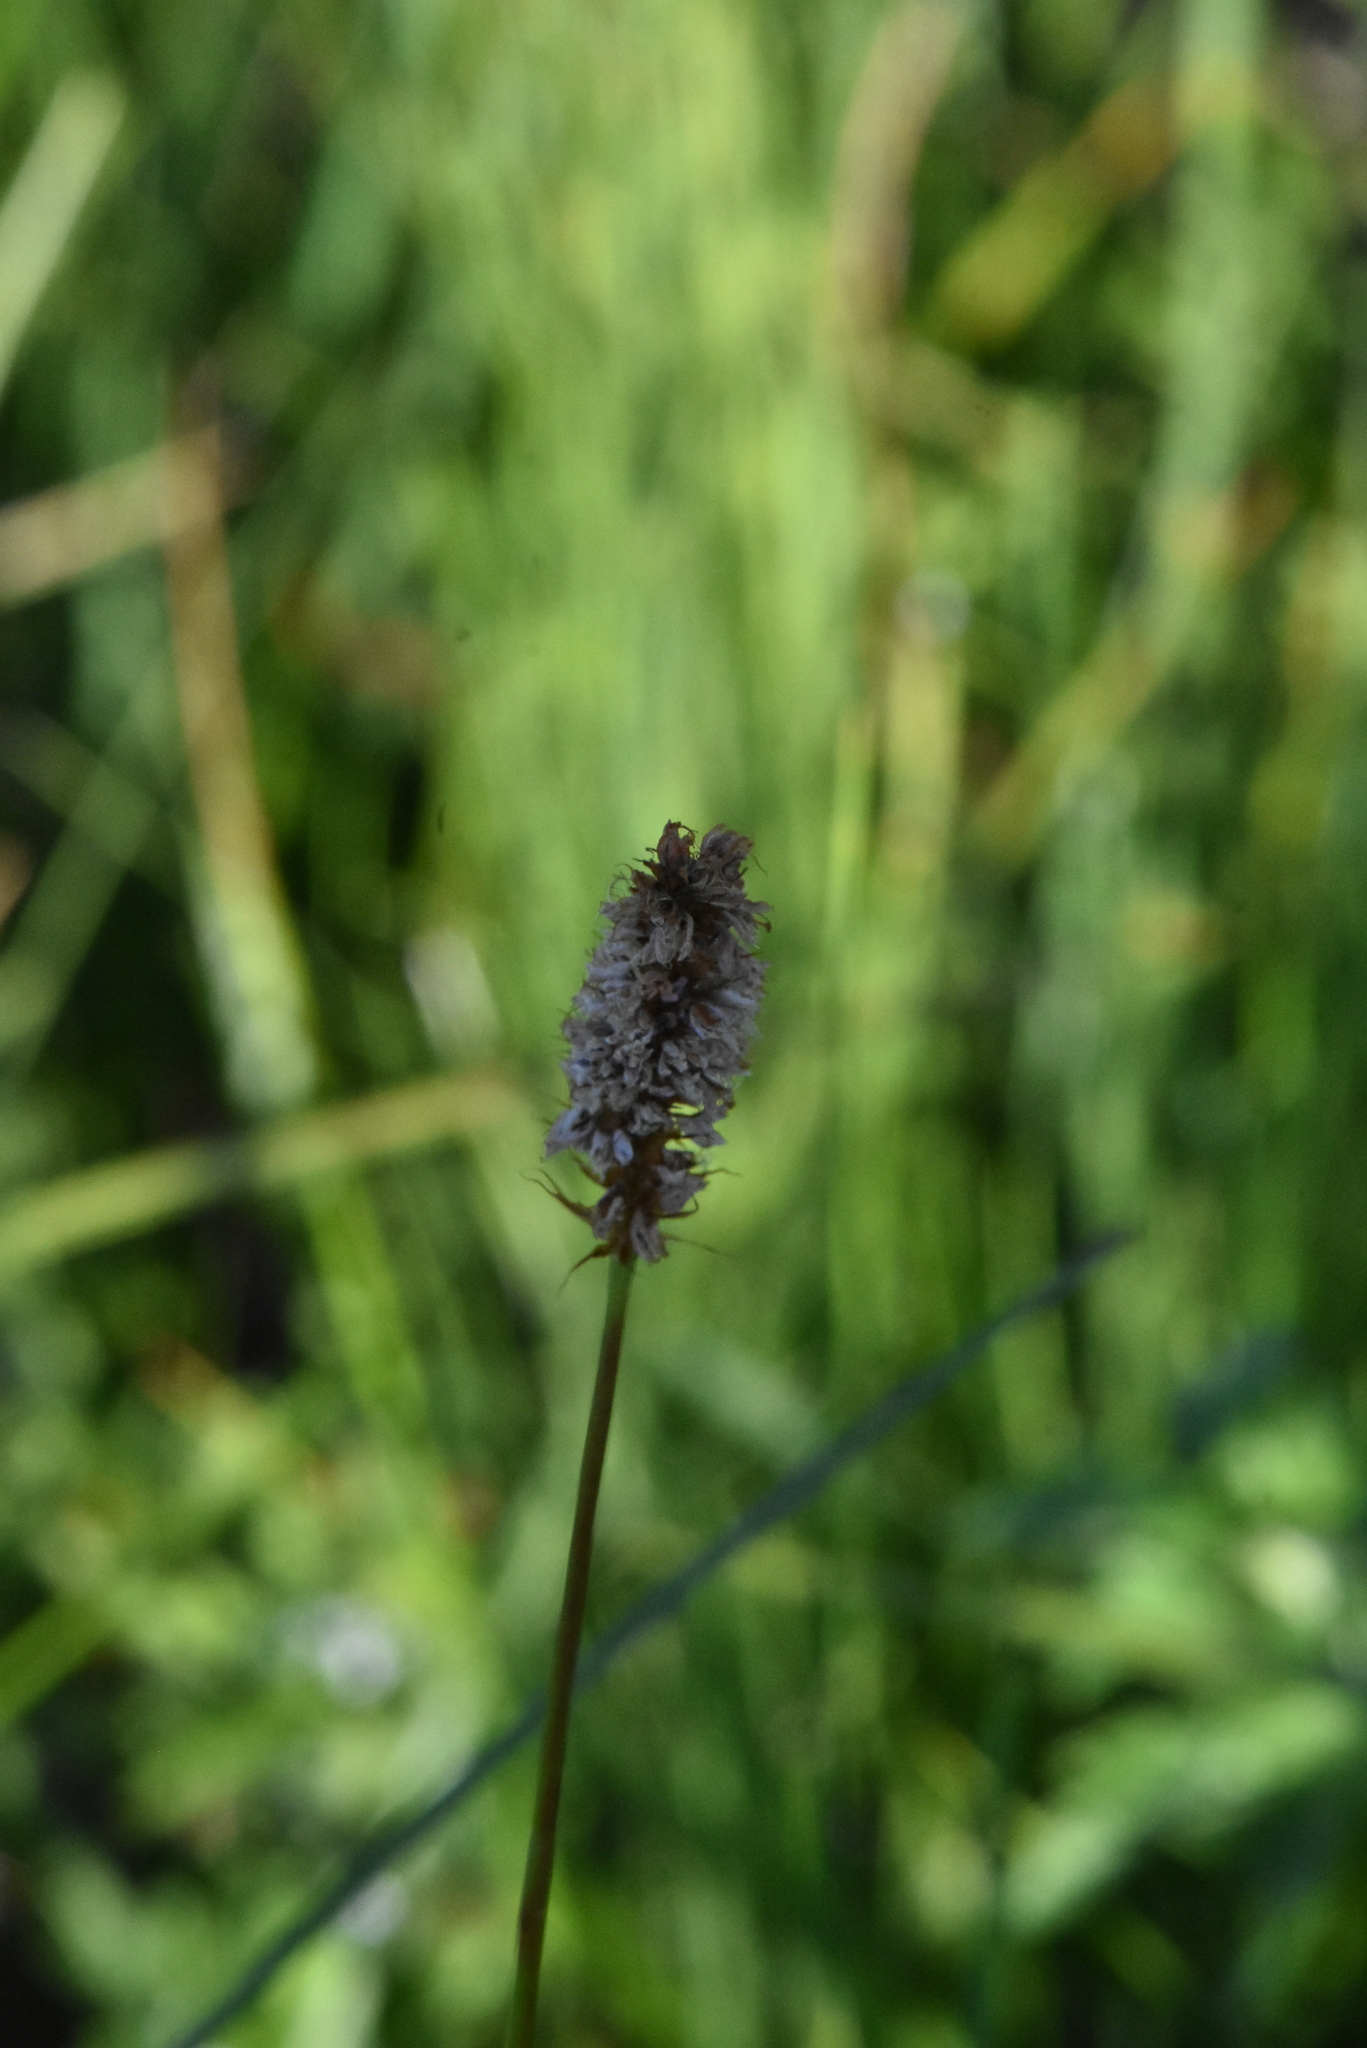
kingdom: Plantae
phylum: Tracheophyta
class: Magnoliopsida
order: Caryophyllales
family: Polygonaceae
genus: Bistorta
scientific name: Bistorta officinalis
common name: Common bistort
